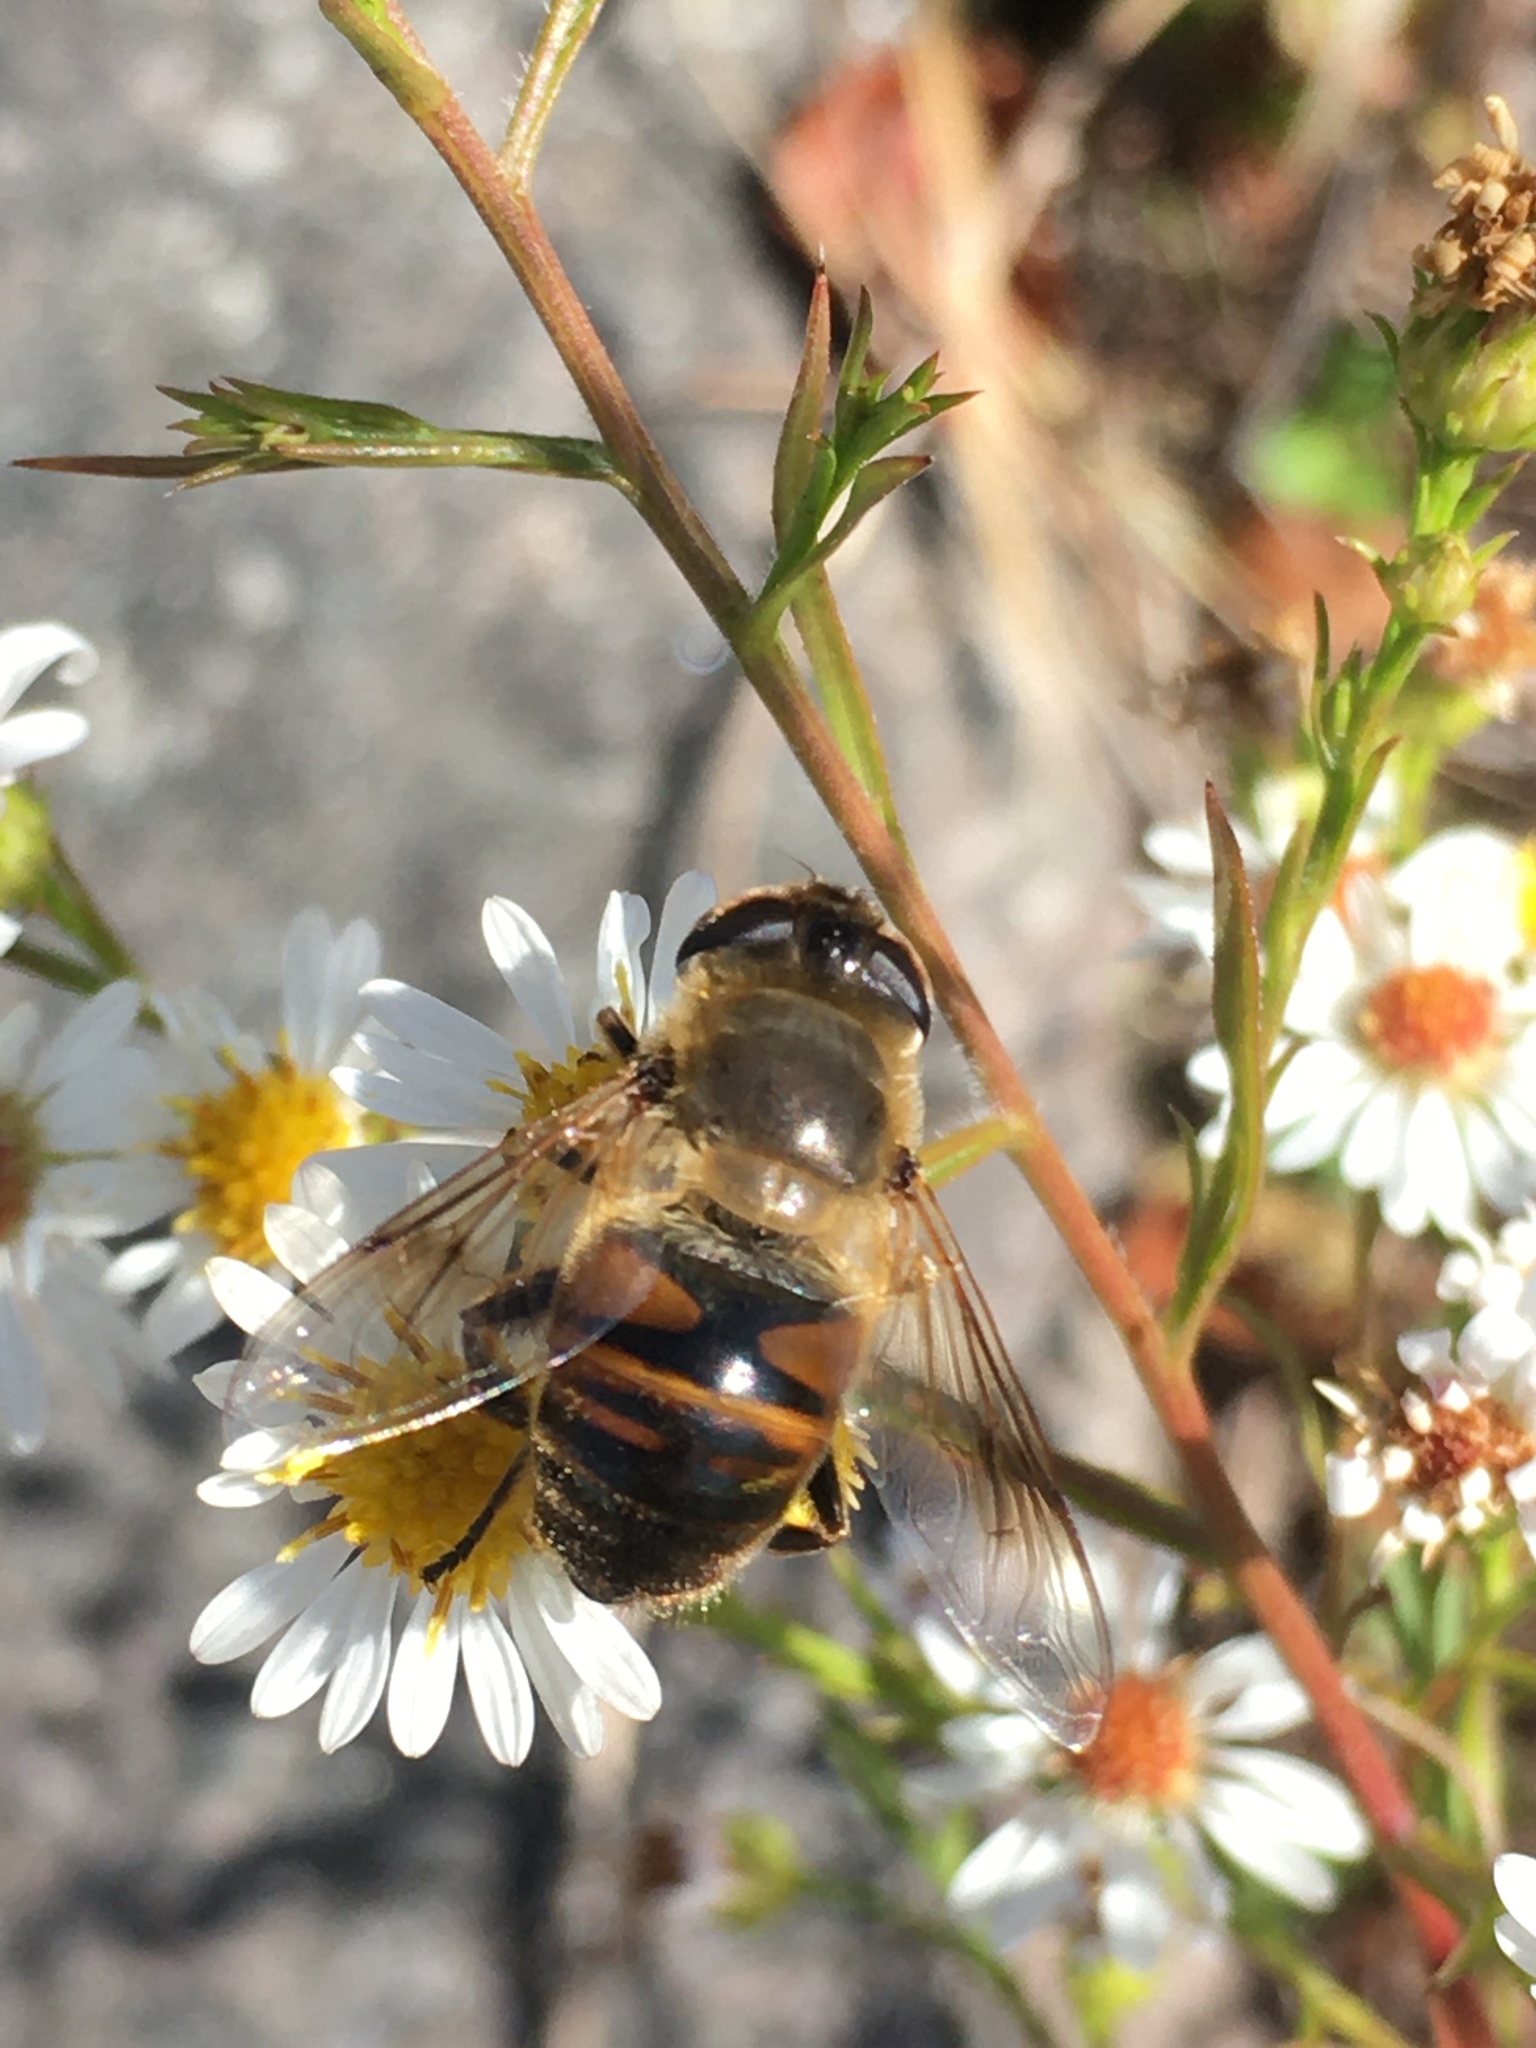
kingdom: Animalia
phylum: Arthropoda
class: Insecta
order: Diptera
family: Syrphidae
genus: Eristalis
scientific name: Eristalis tenax
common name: Drone fly
